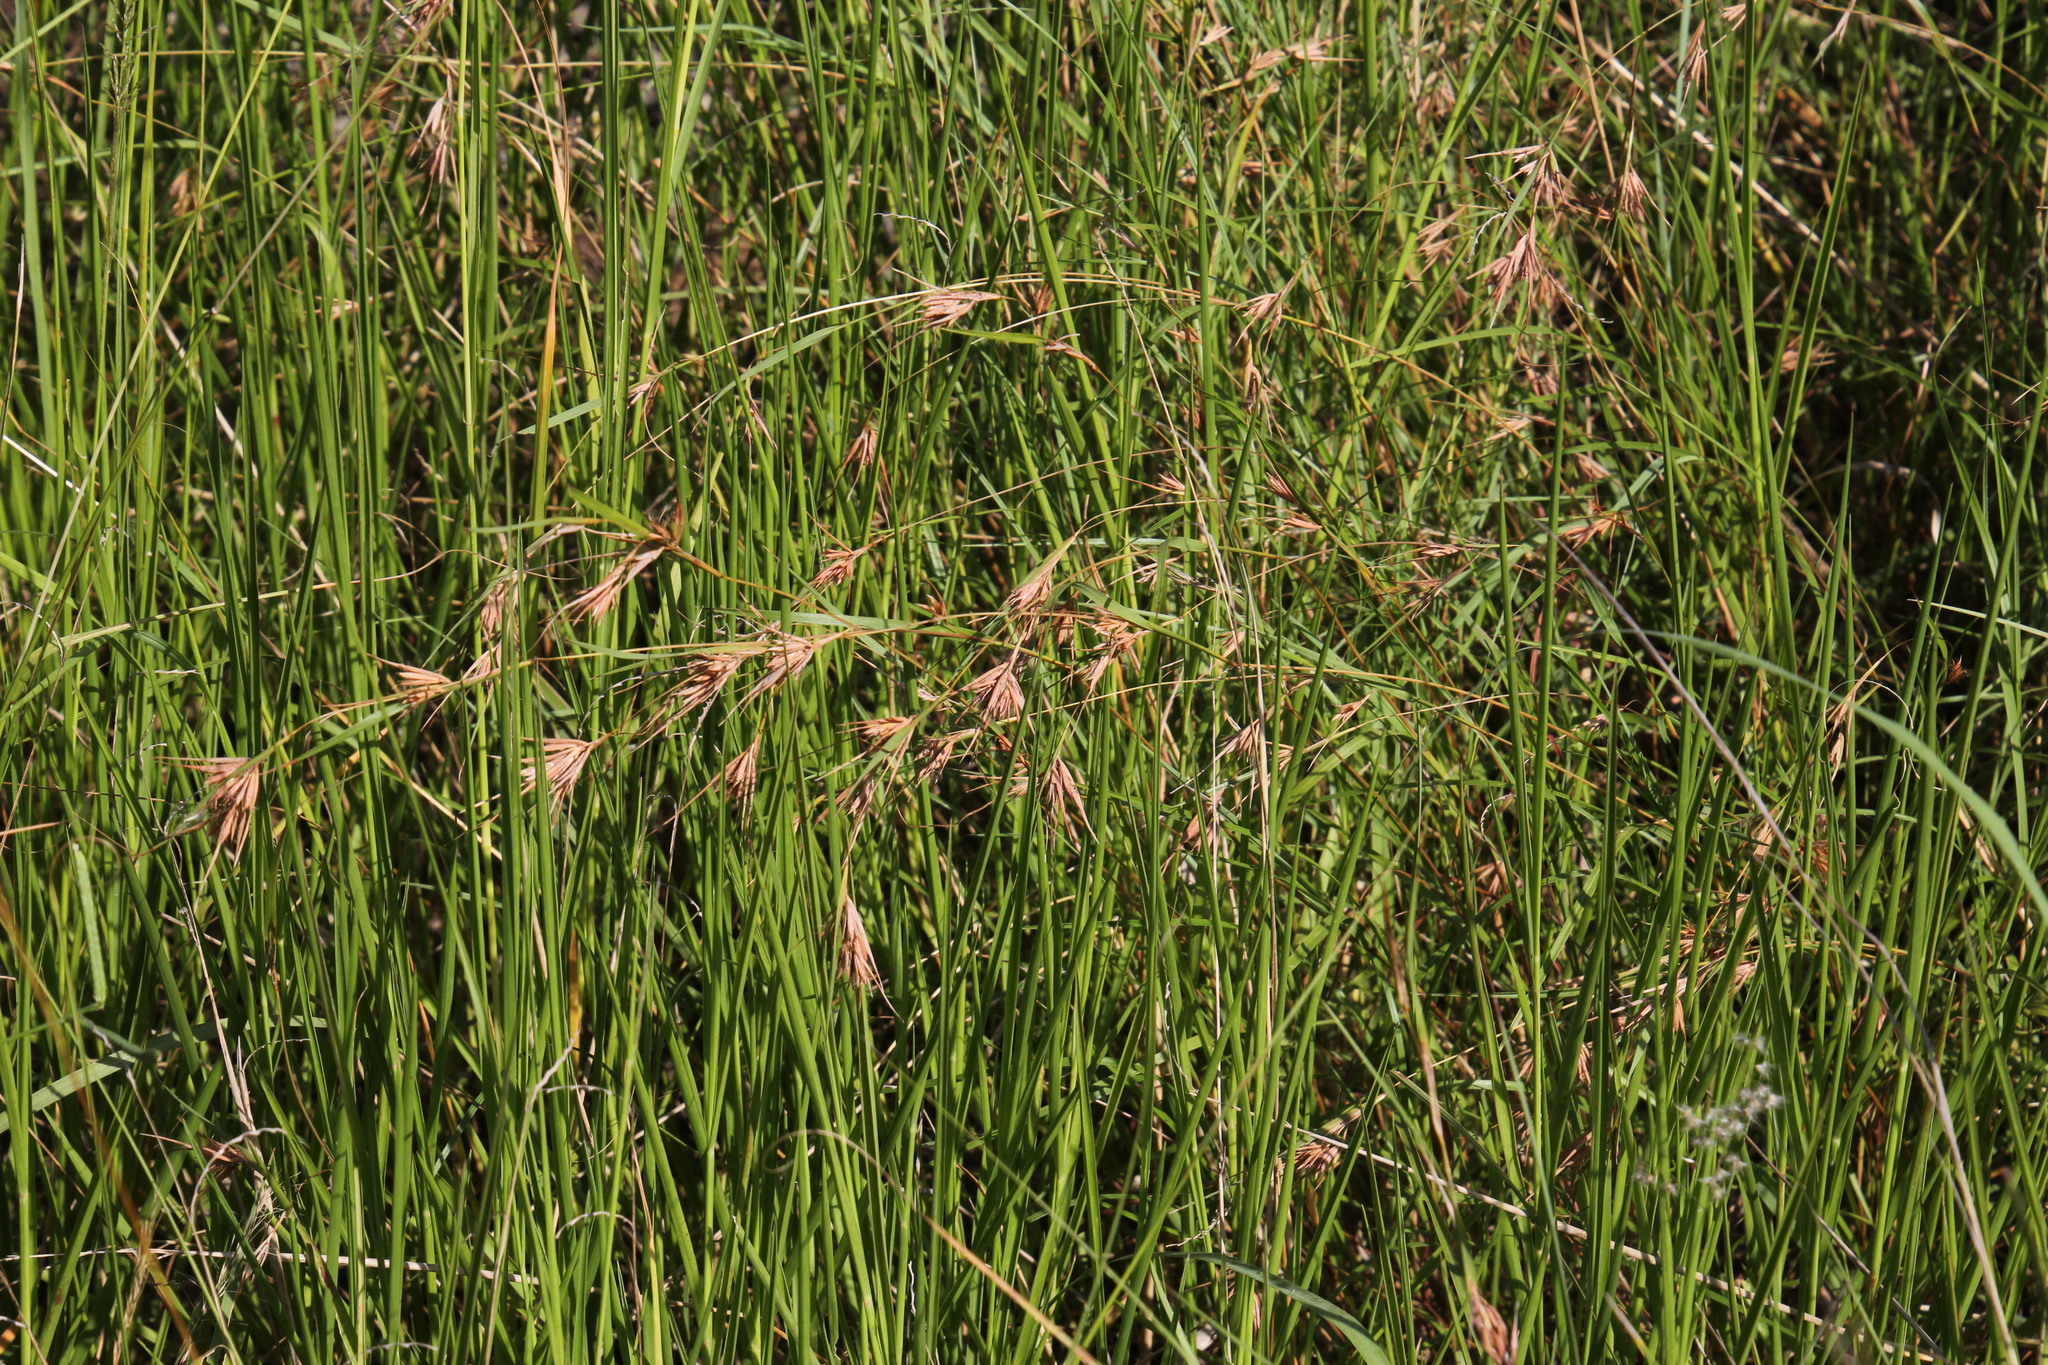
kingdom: Plantae
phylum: Tracheophyta
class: Liliopsida
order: Poales
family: Poaceae
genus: Themeda
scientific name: Themeda triandra
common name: Kangaroo grass
